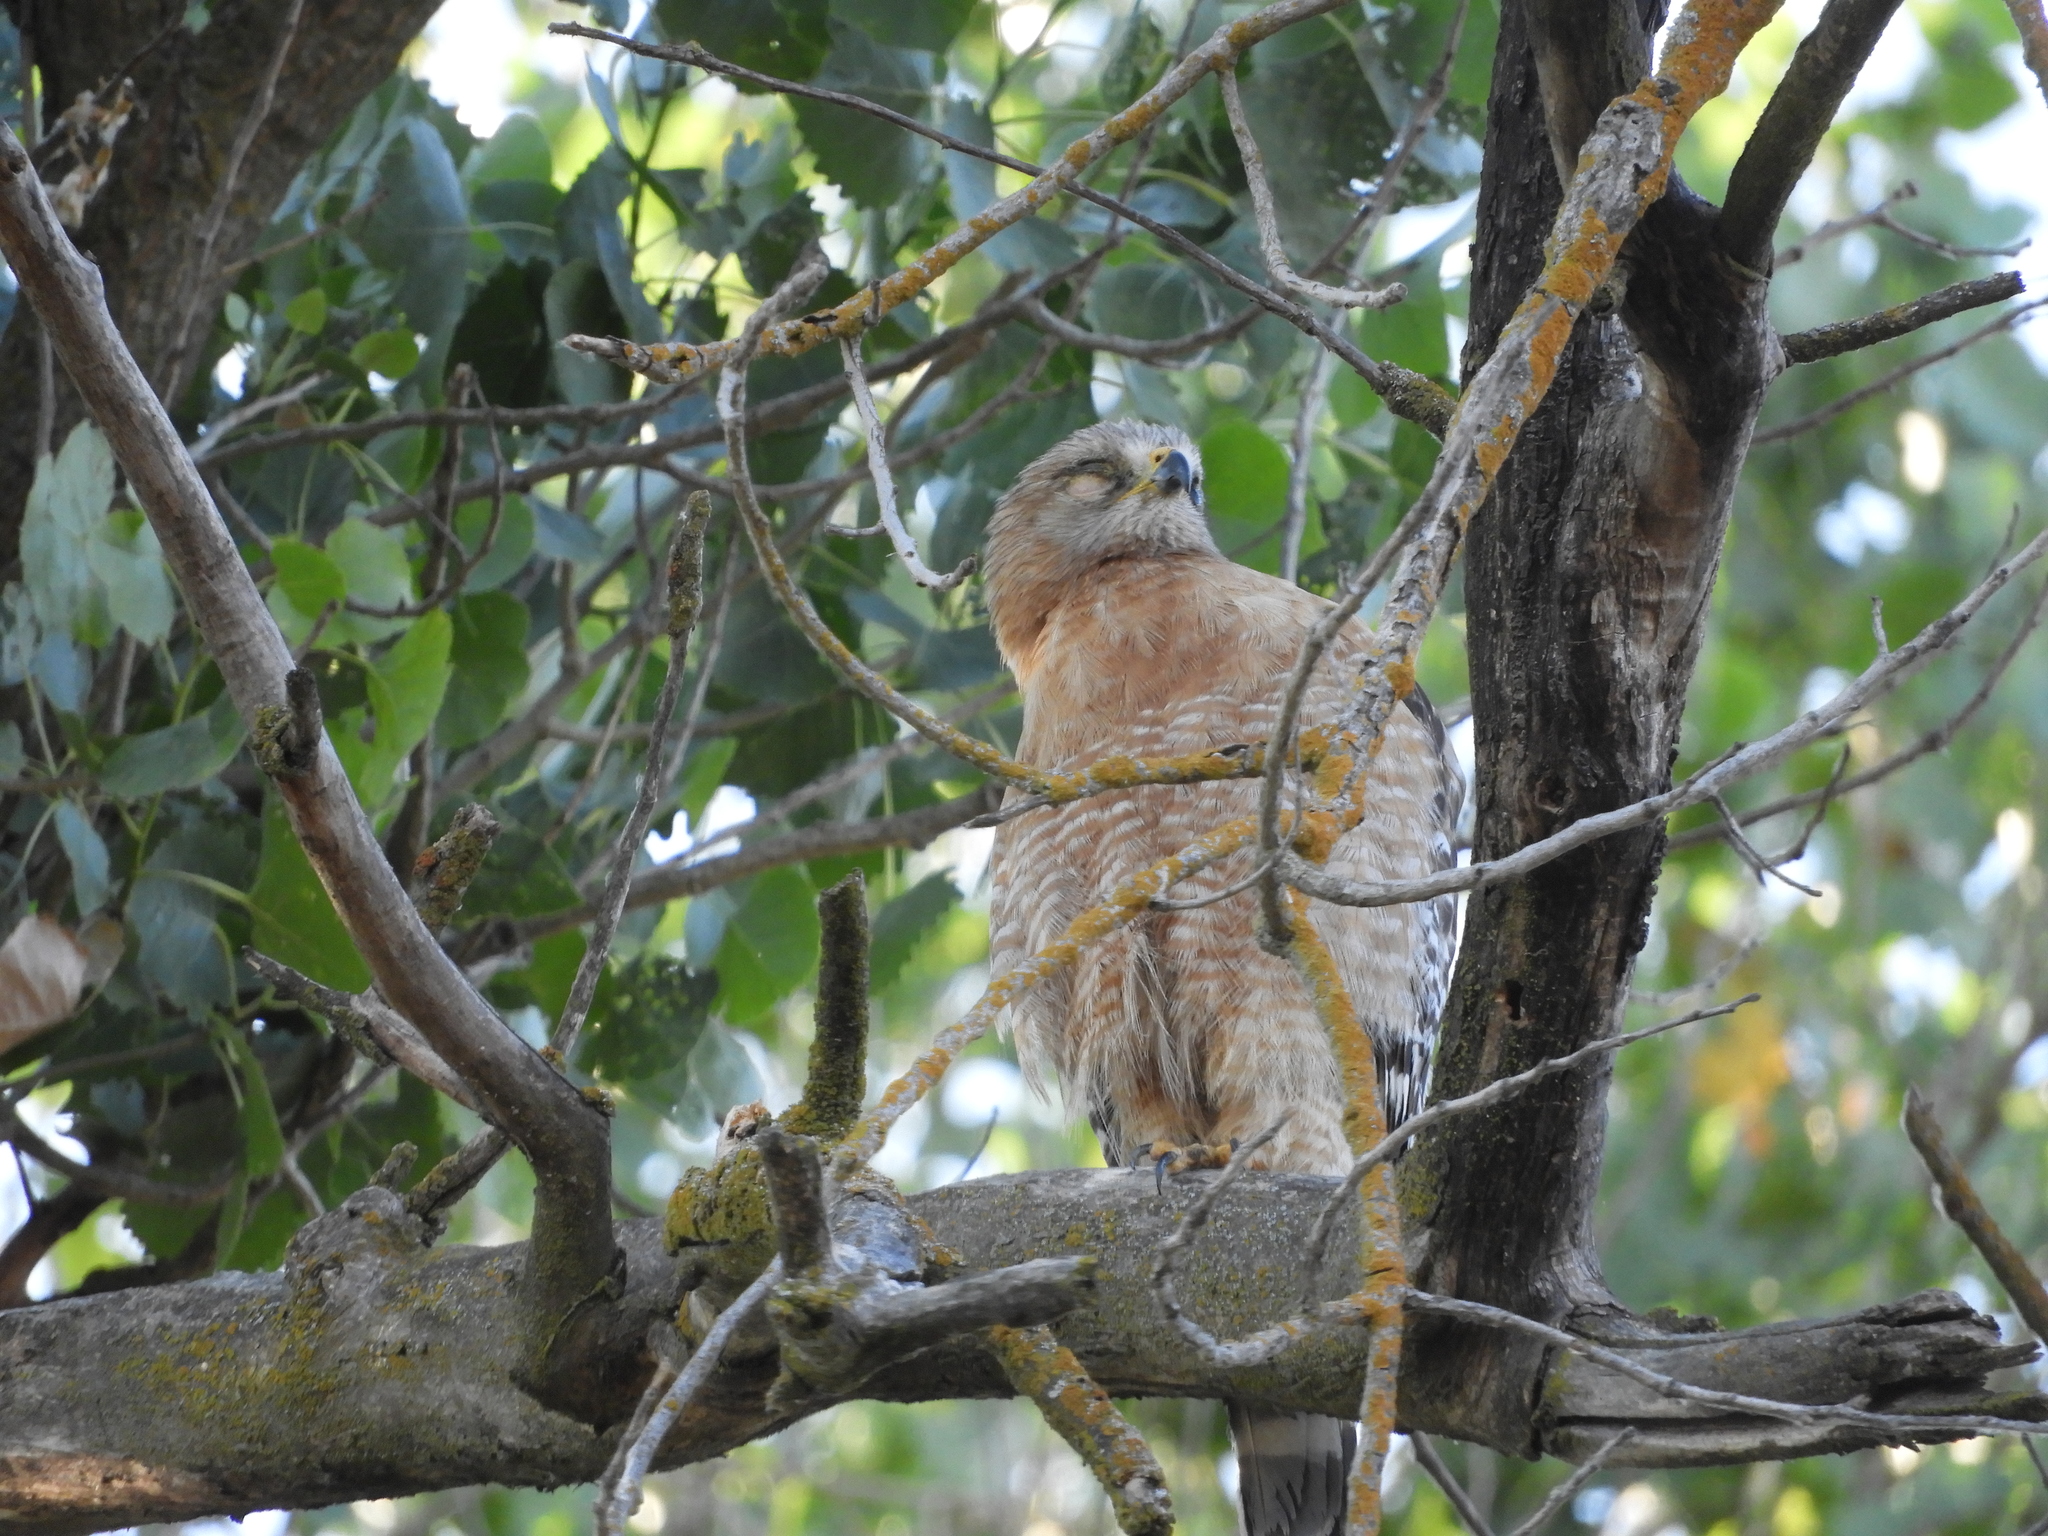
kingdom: Animalia
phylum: Chordata
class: Aves
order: Accipitriformes
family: Accipitridae
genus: Buteo
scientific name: Buteo lineatus
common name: Red-shouldered hawk
